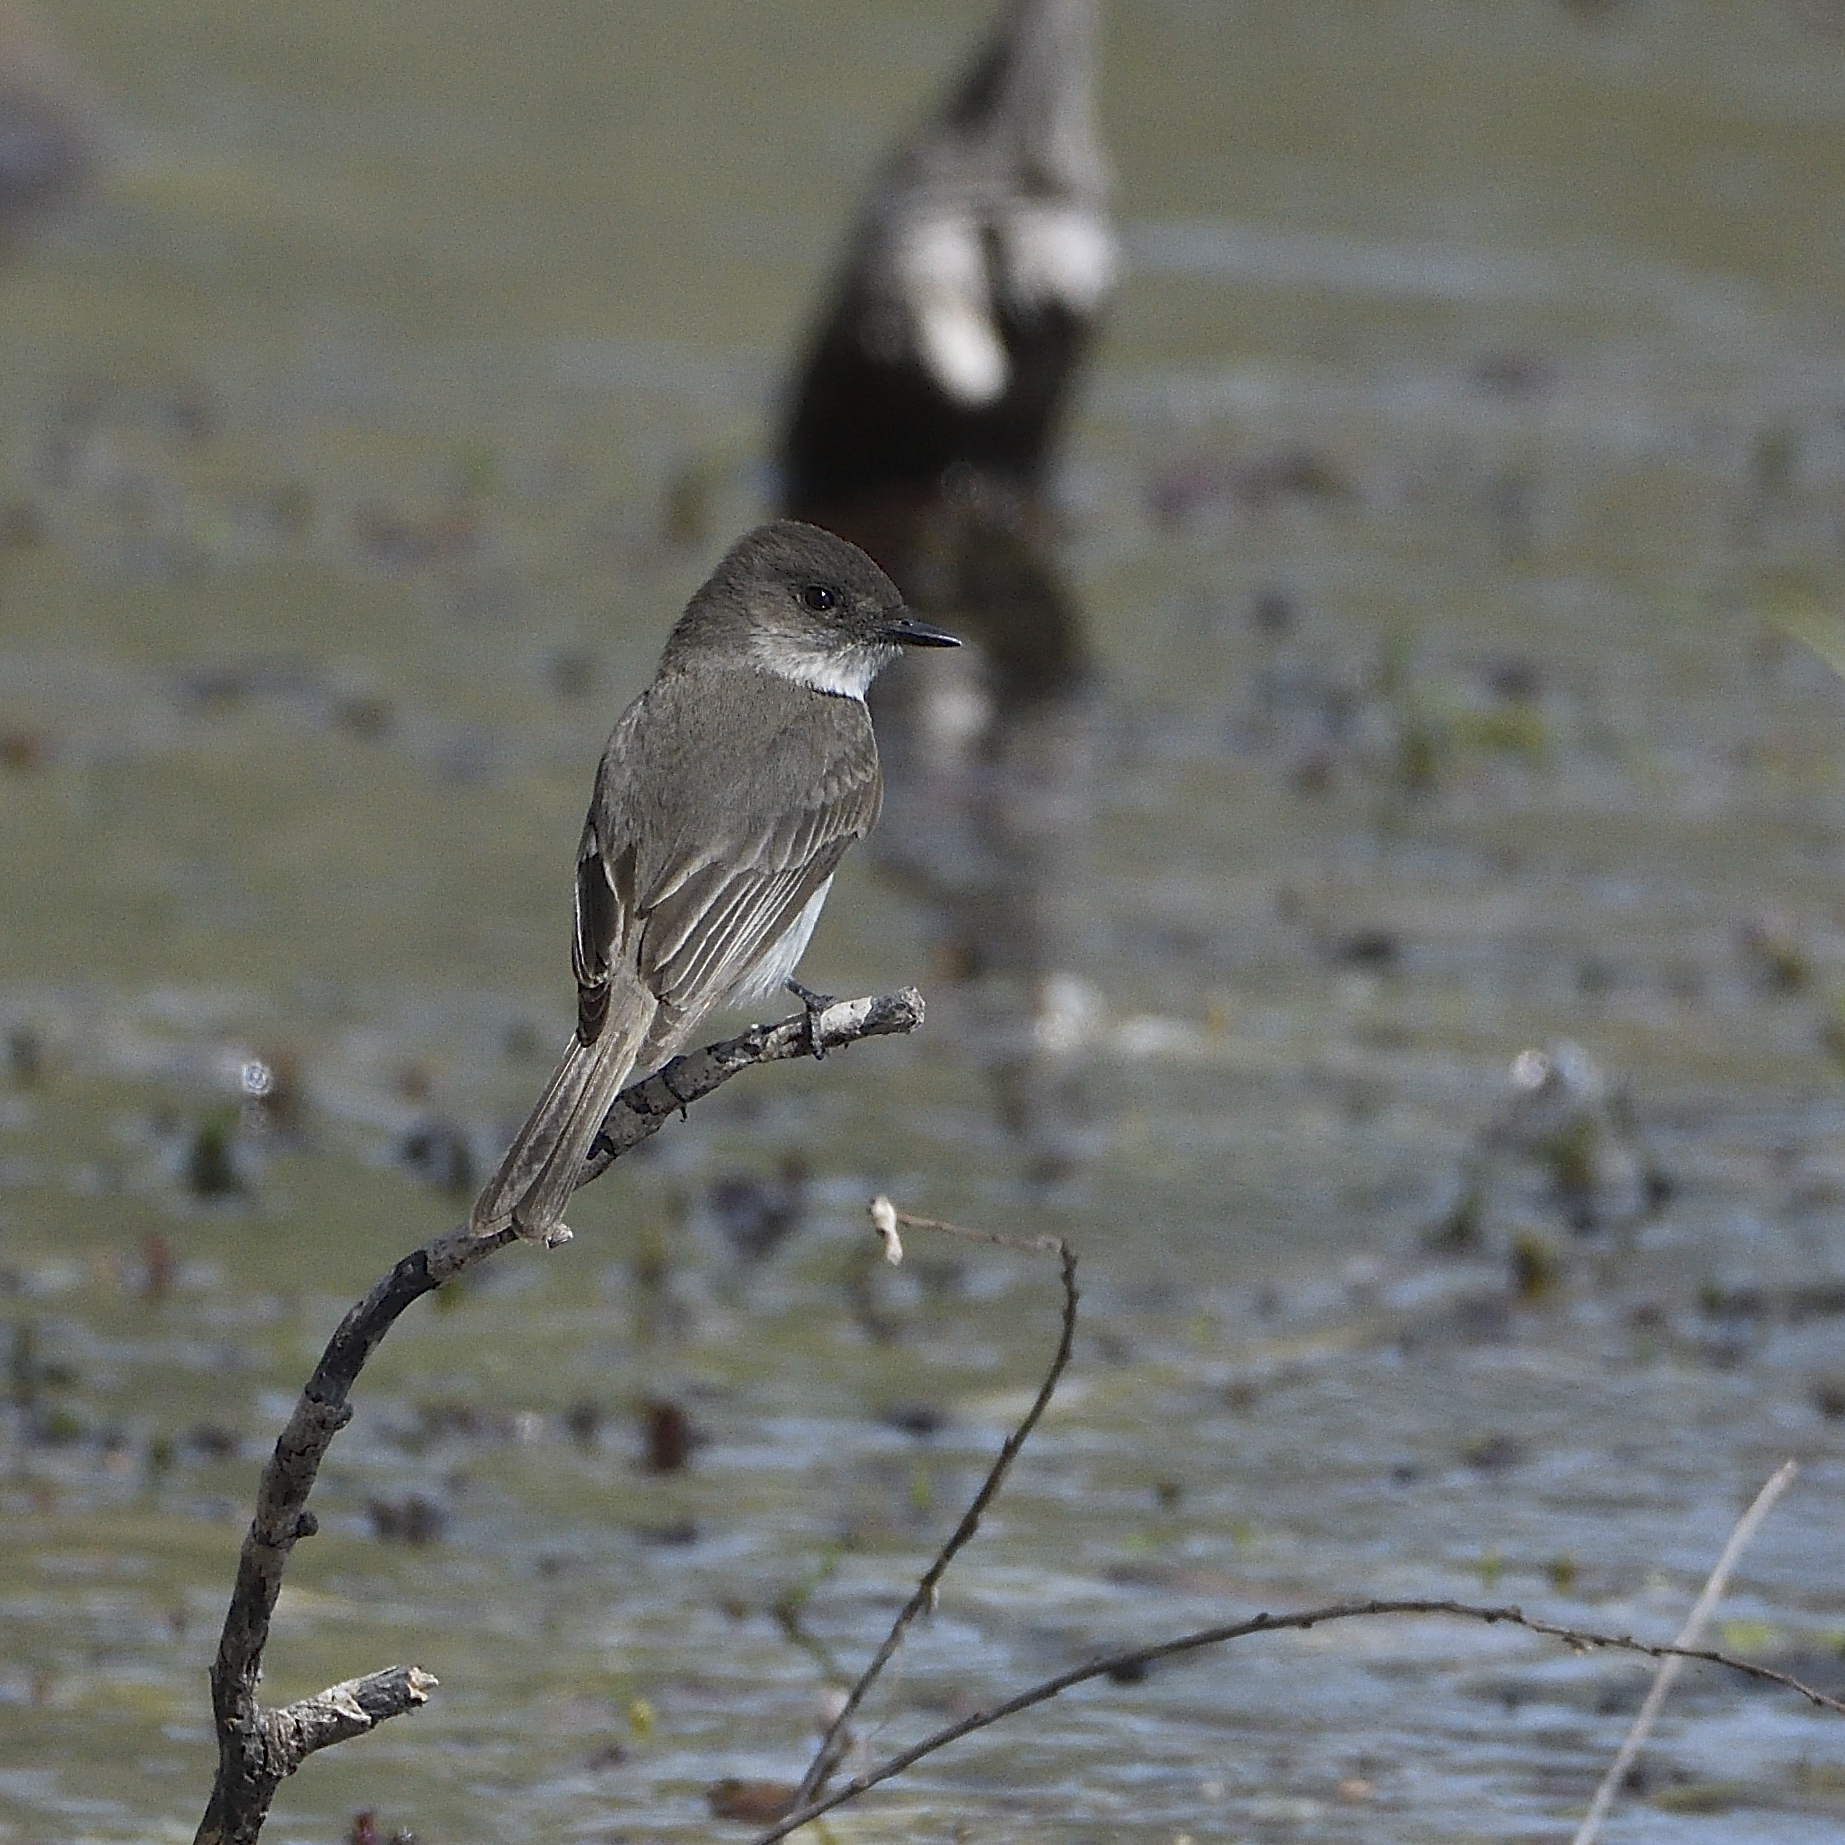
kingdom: Animalia
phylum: Chordata
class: Aves
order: Passeriformes
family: Tyrannidae
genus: Sayornis
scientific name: Sayornis phoebe
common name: Eastern phoebe
